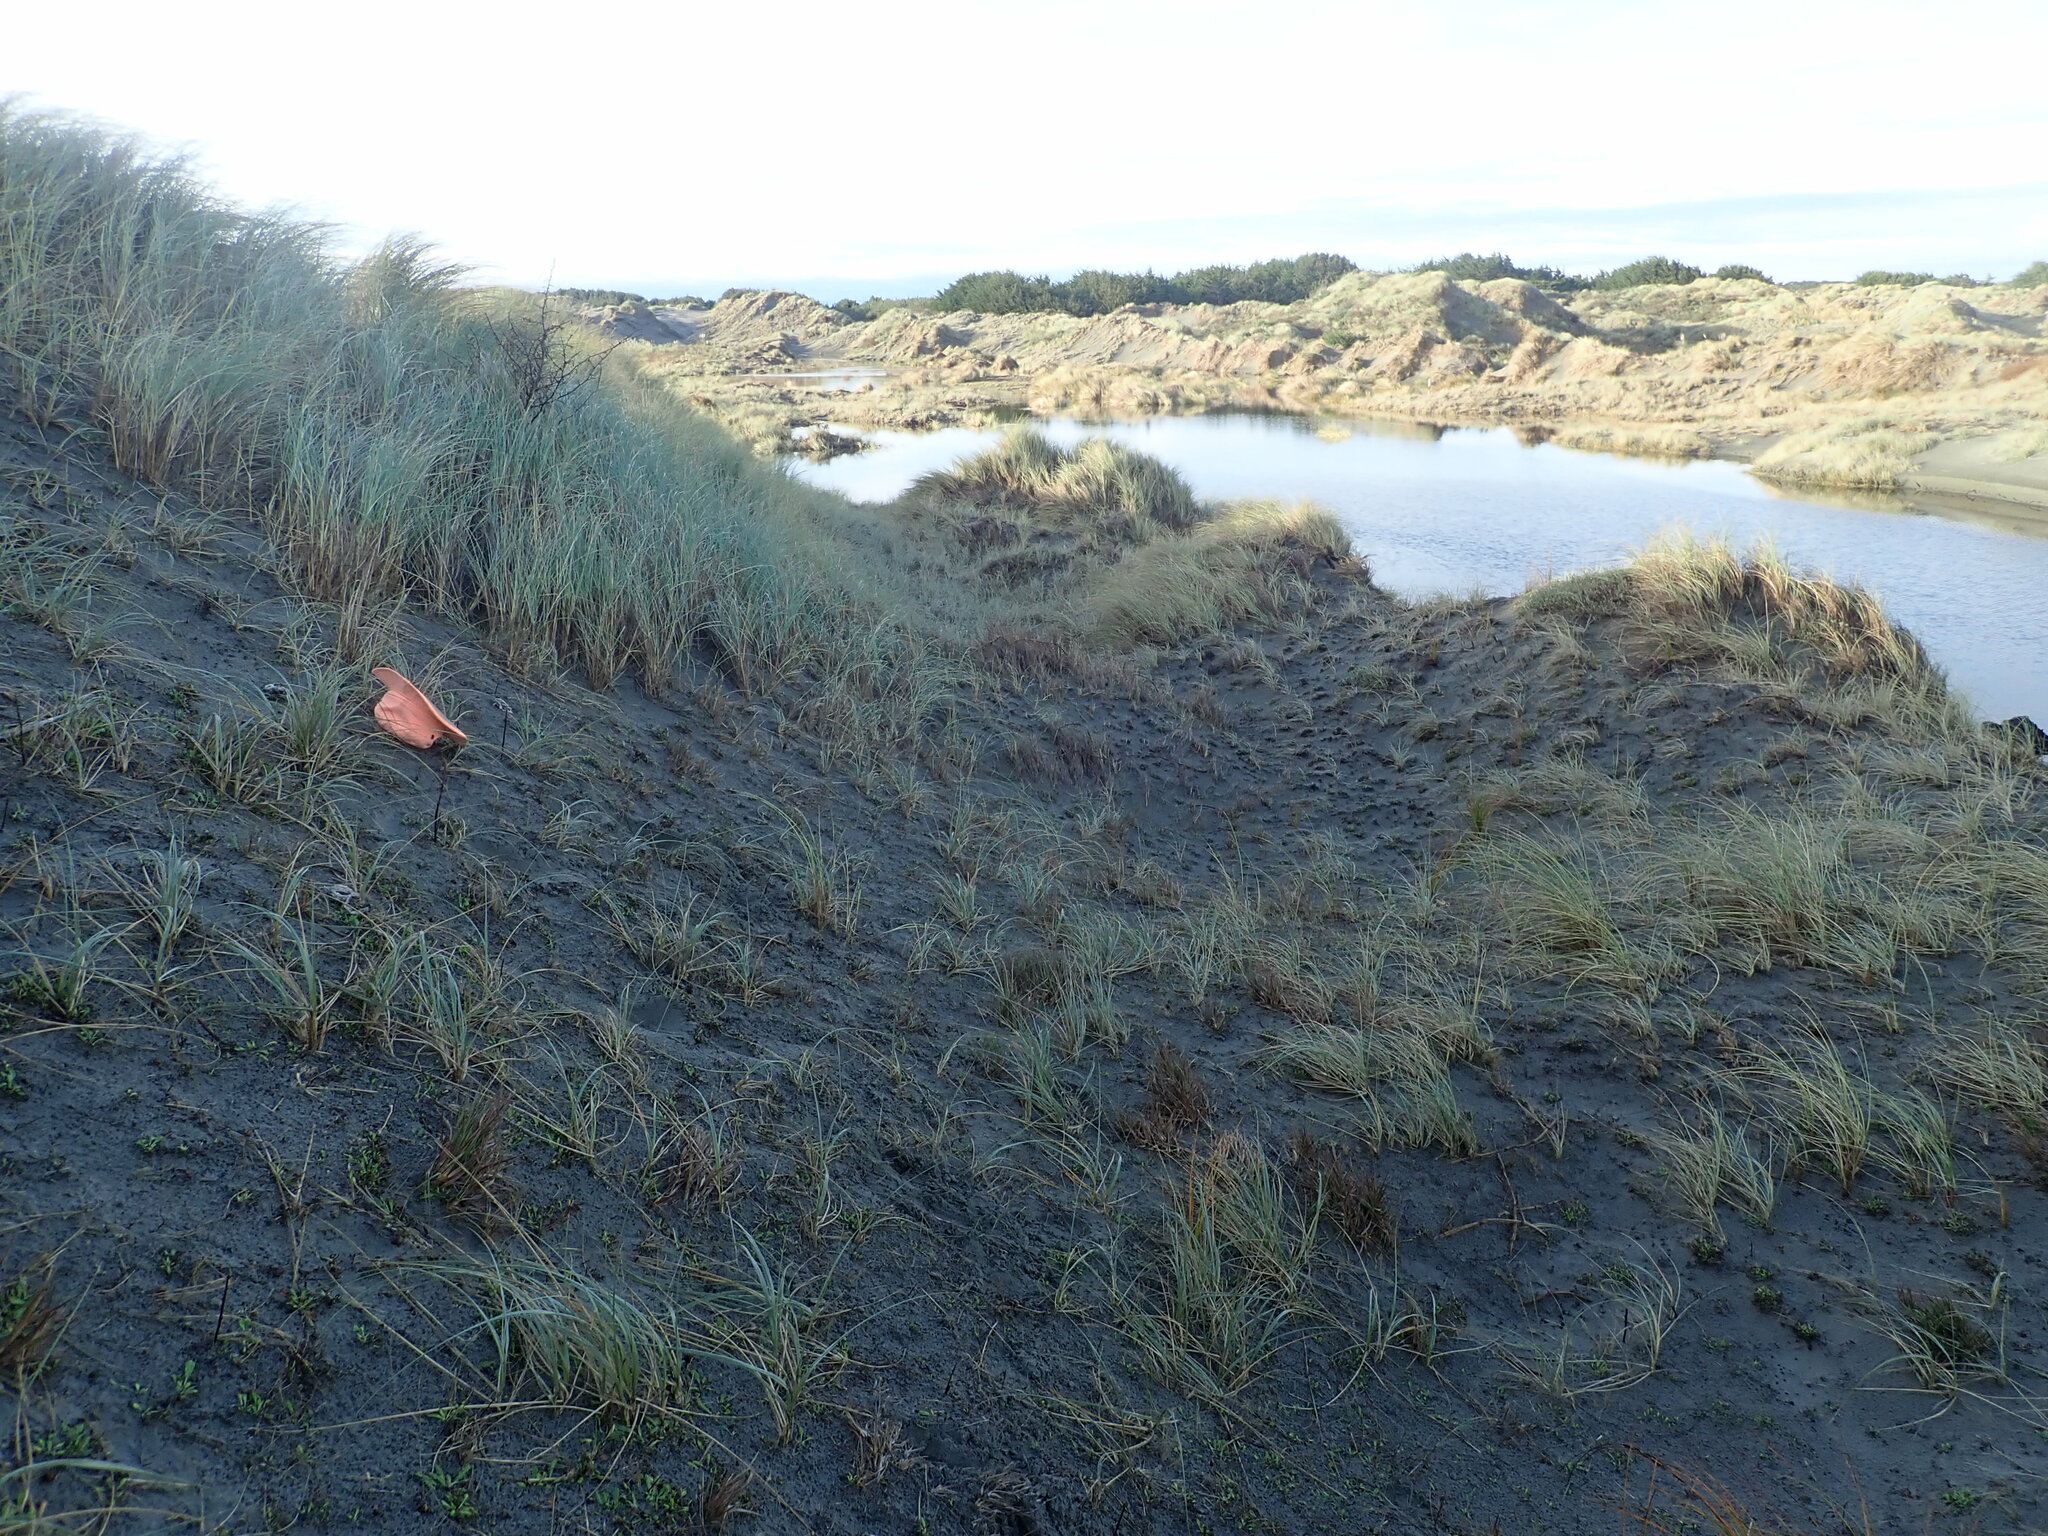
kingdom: Fungi
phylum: Basidiomycota
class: Agaricomycetes
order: Phallales
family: Phallaceae
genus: Ileodictyon
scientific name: Ileodictyon cibarium
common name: Basket fungus
